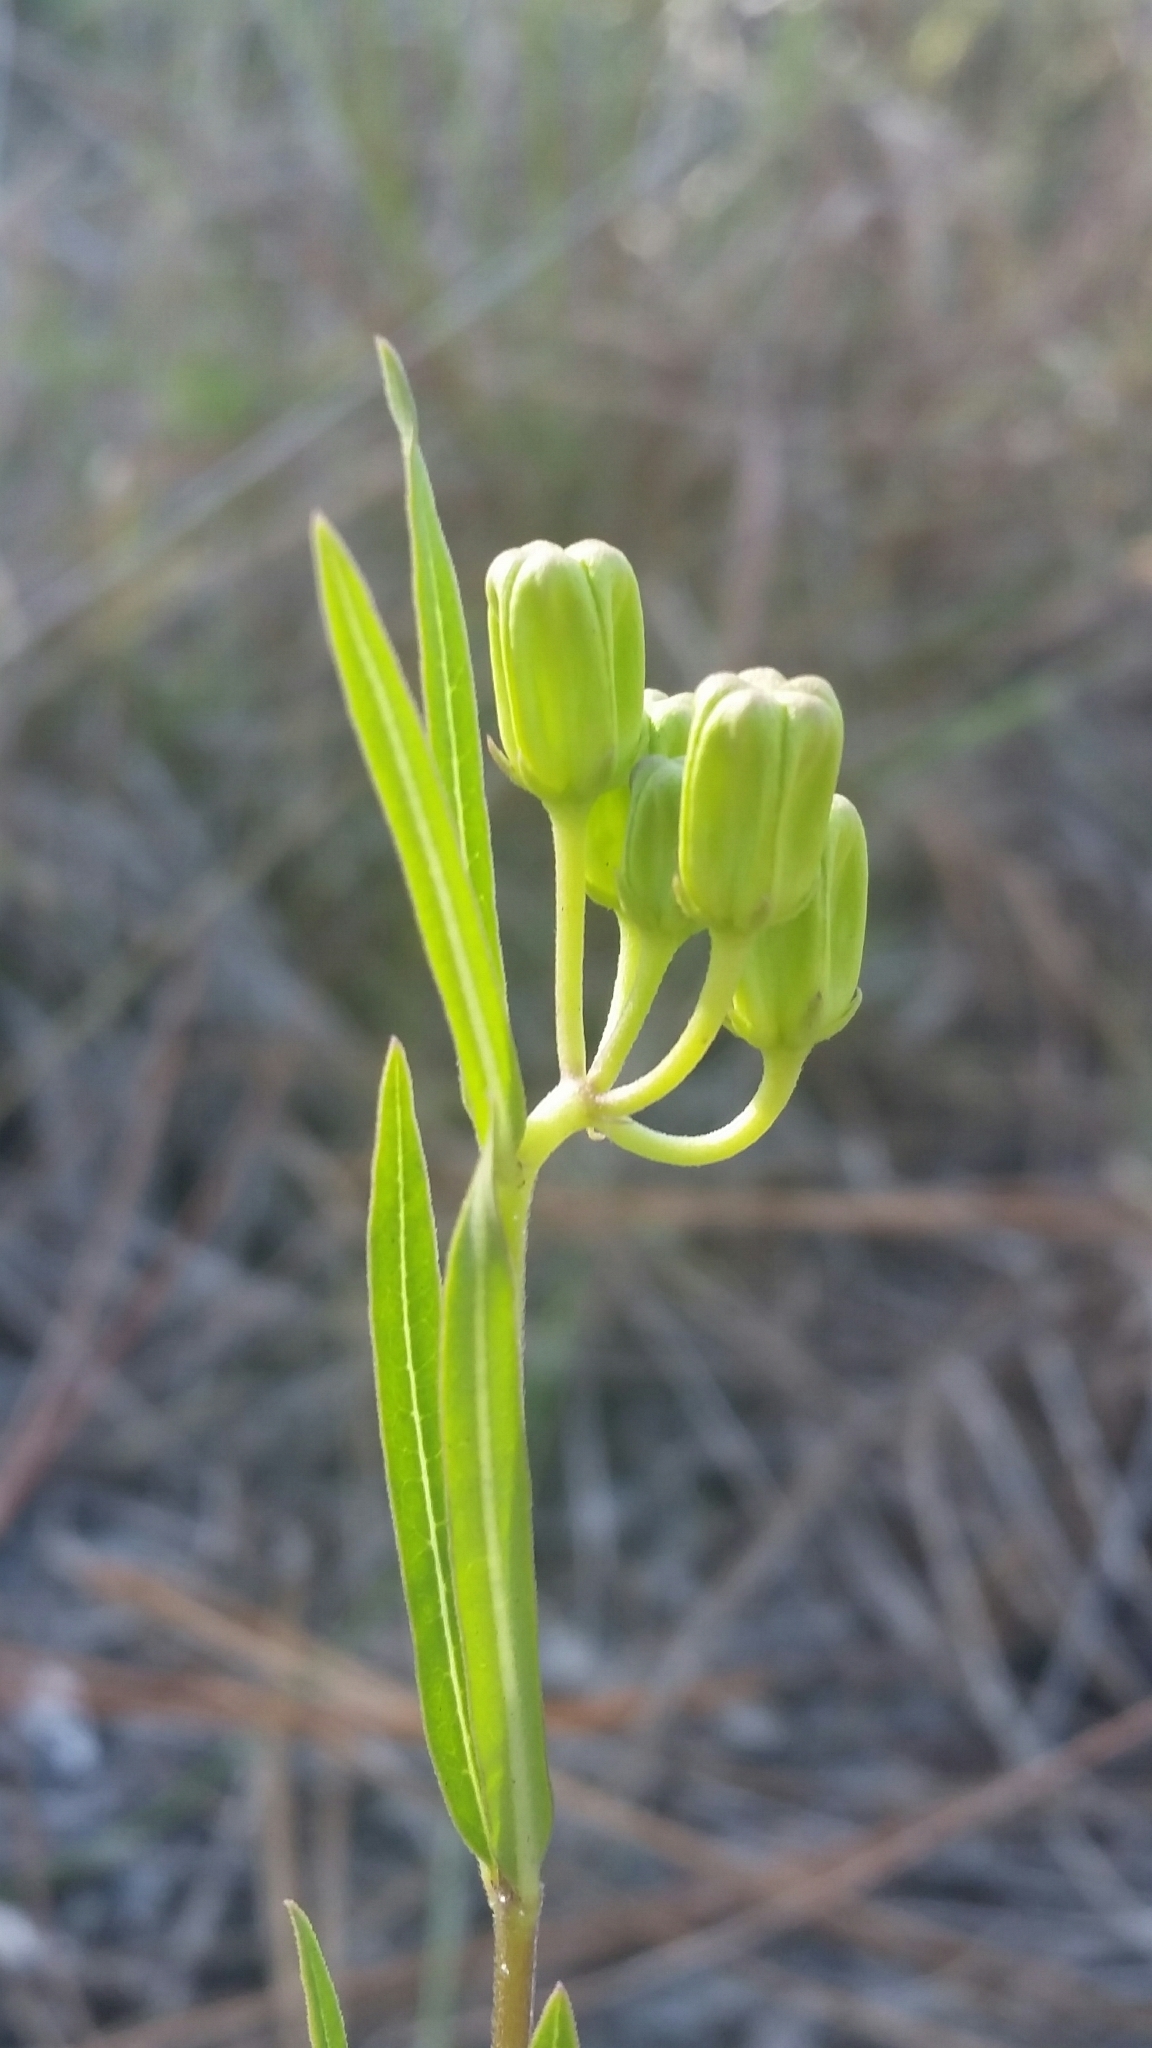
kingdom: Plantae
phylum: Tracheophyta
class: Magnoliopsida
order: Gentianales
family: Apocynaceae
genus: Asclepias
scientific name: Asclepias pedicellata
